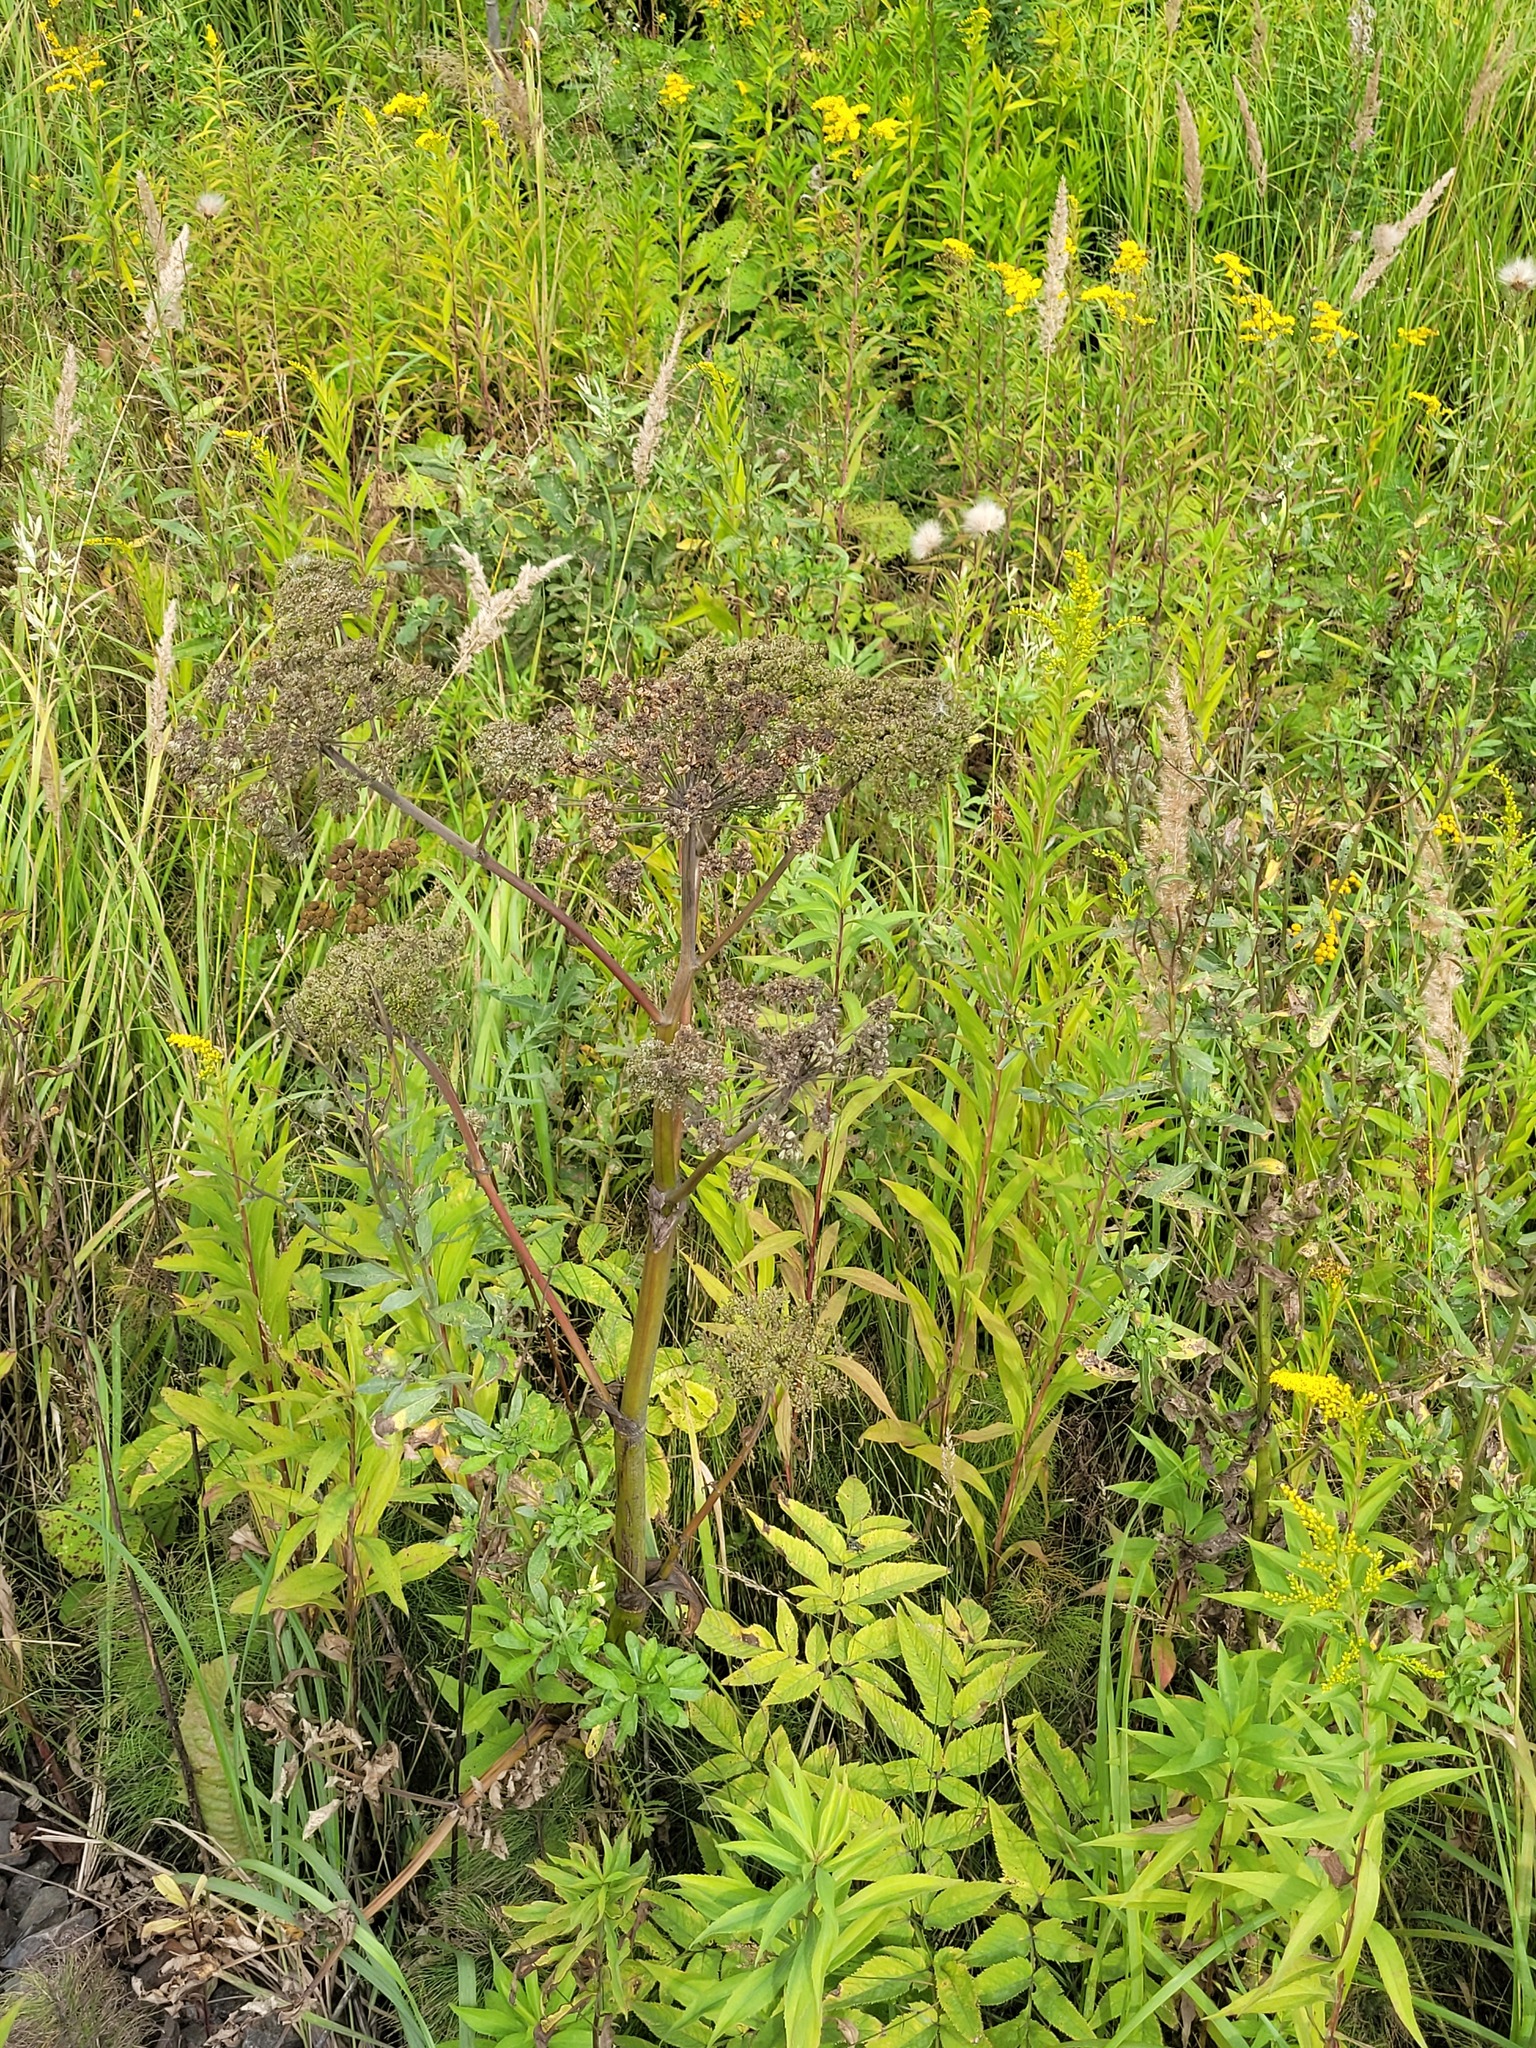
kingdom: Plantae
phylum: Tracheophyta
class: Magnoliopsida
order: Apiales
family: Apiaceae
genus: Angelica
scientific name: Angelica sylvestris
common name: Wild angelica
